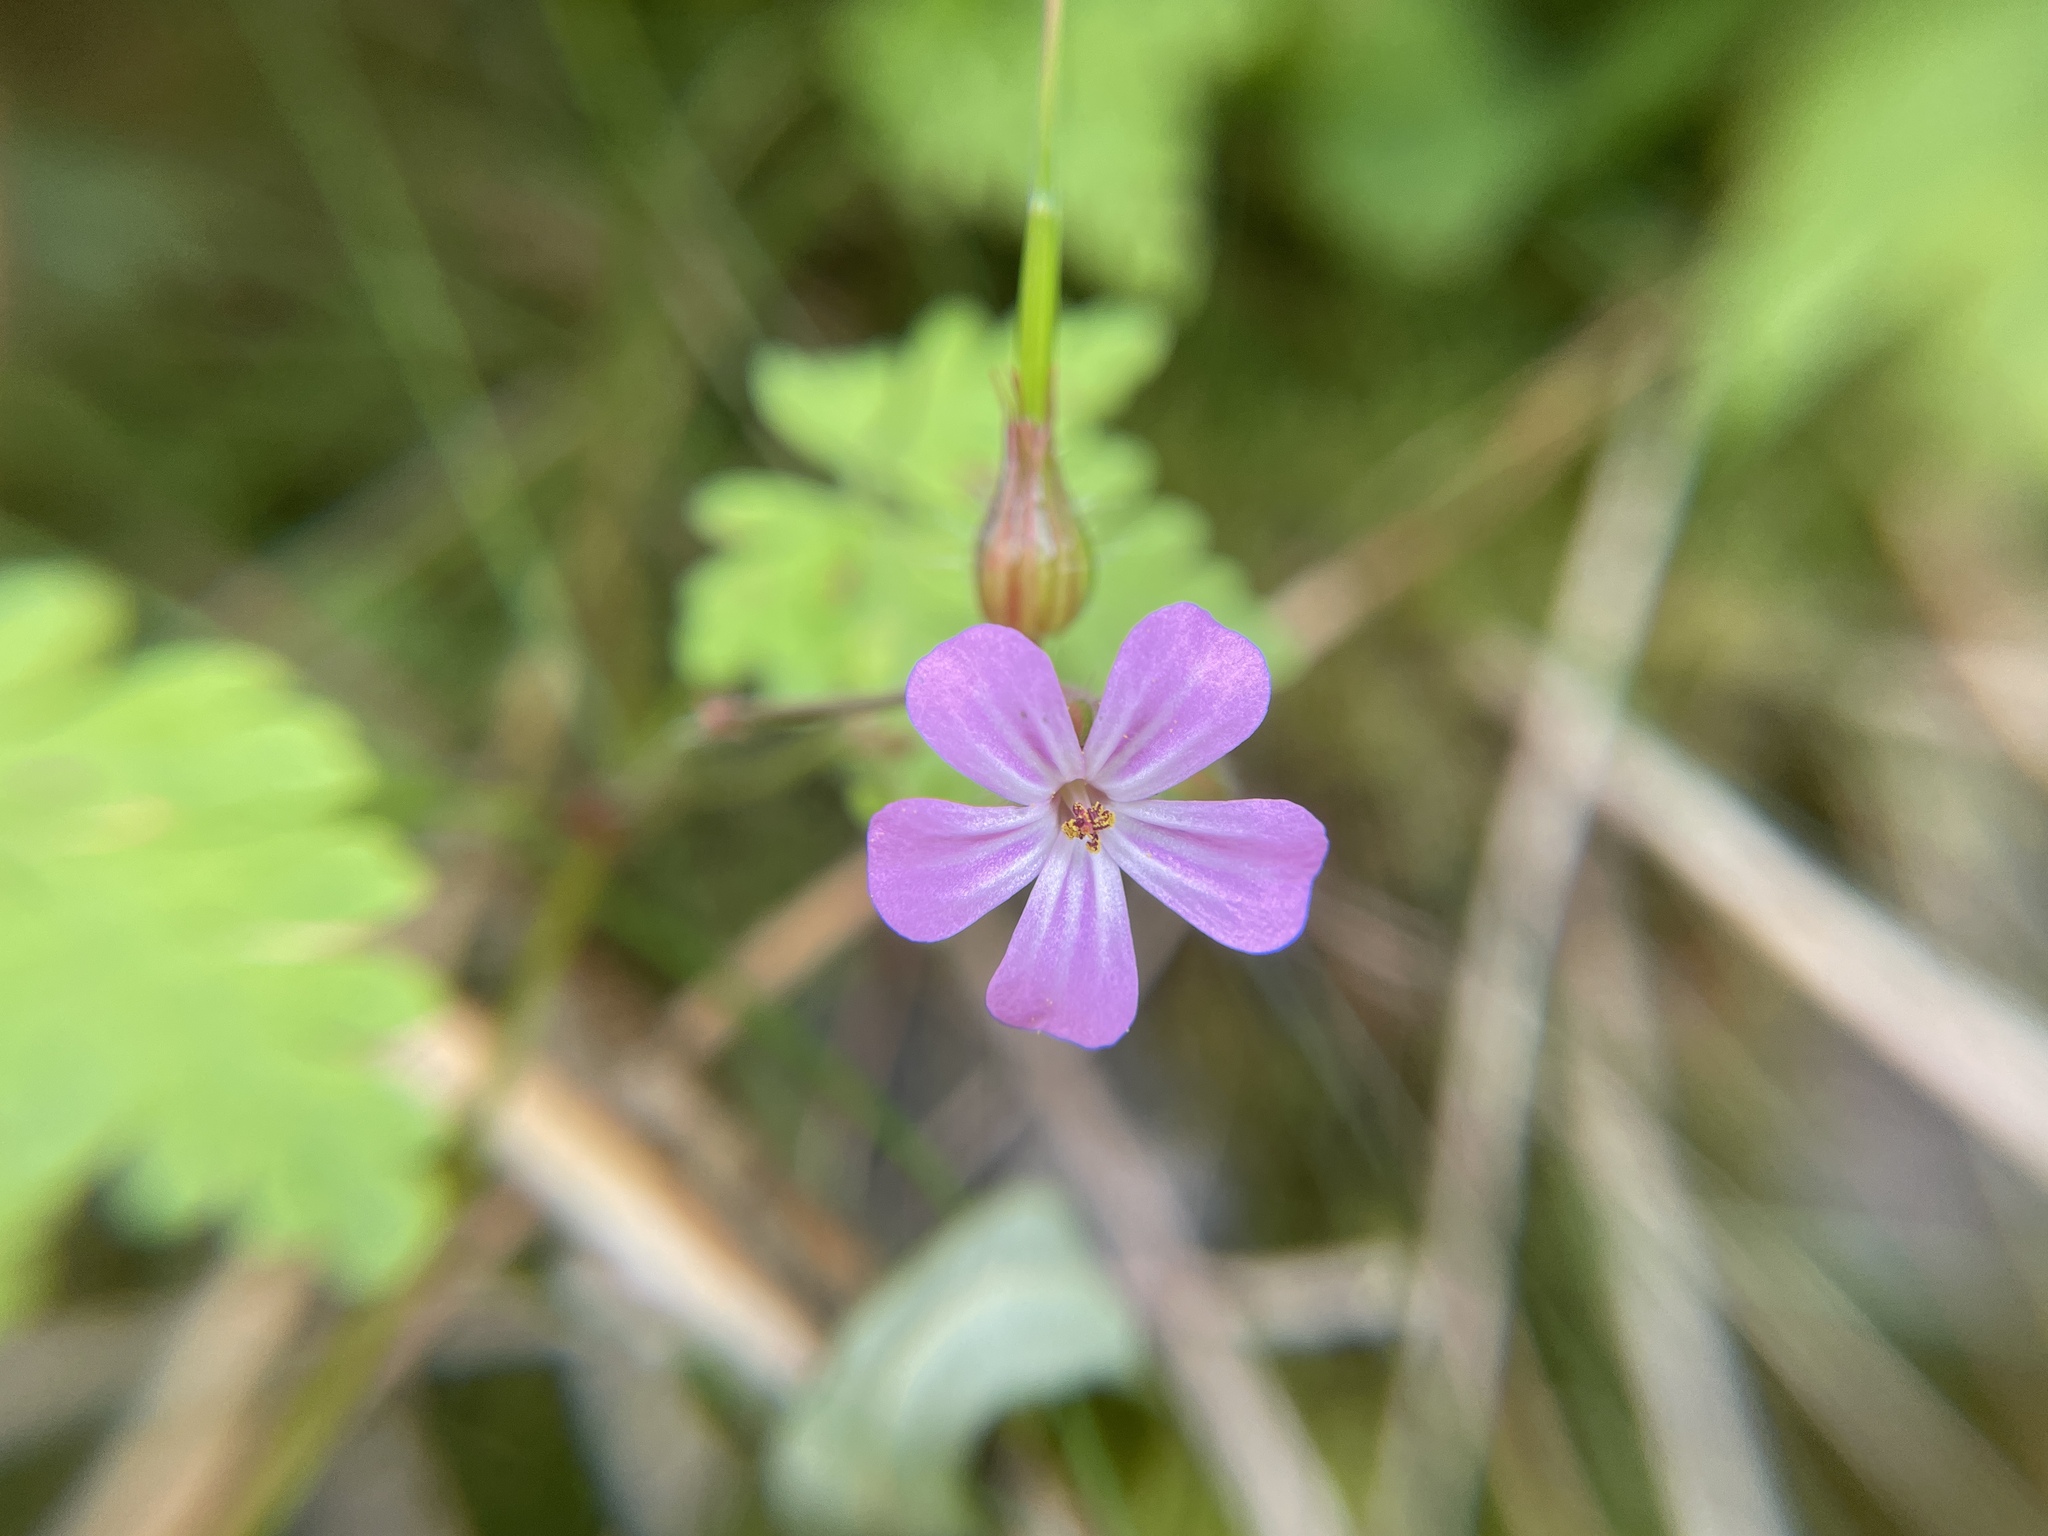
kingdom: Plantae
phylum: Tracheophyta
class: Magnoliopsida
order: Geraniales
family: Geraniaceae
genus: Geranium
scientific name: Geranium robertianum
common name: Herb-robert
